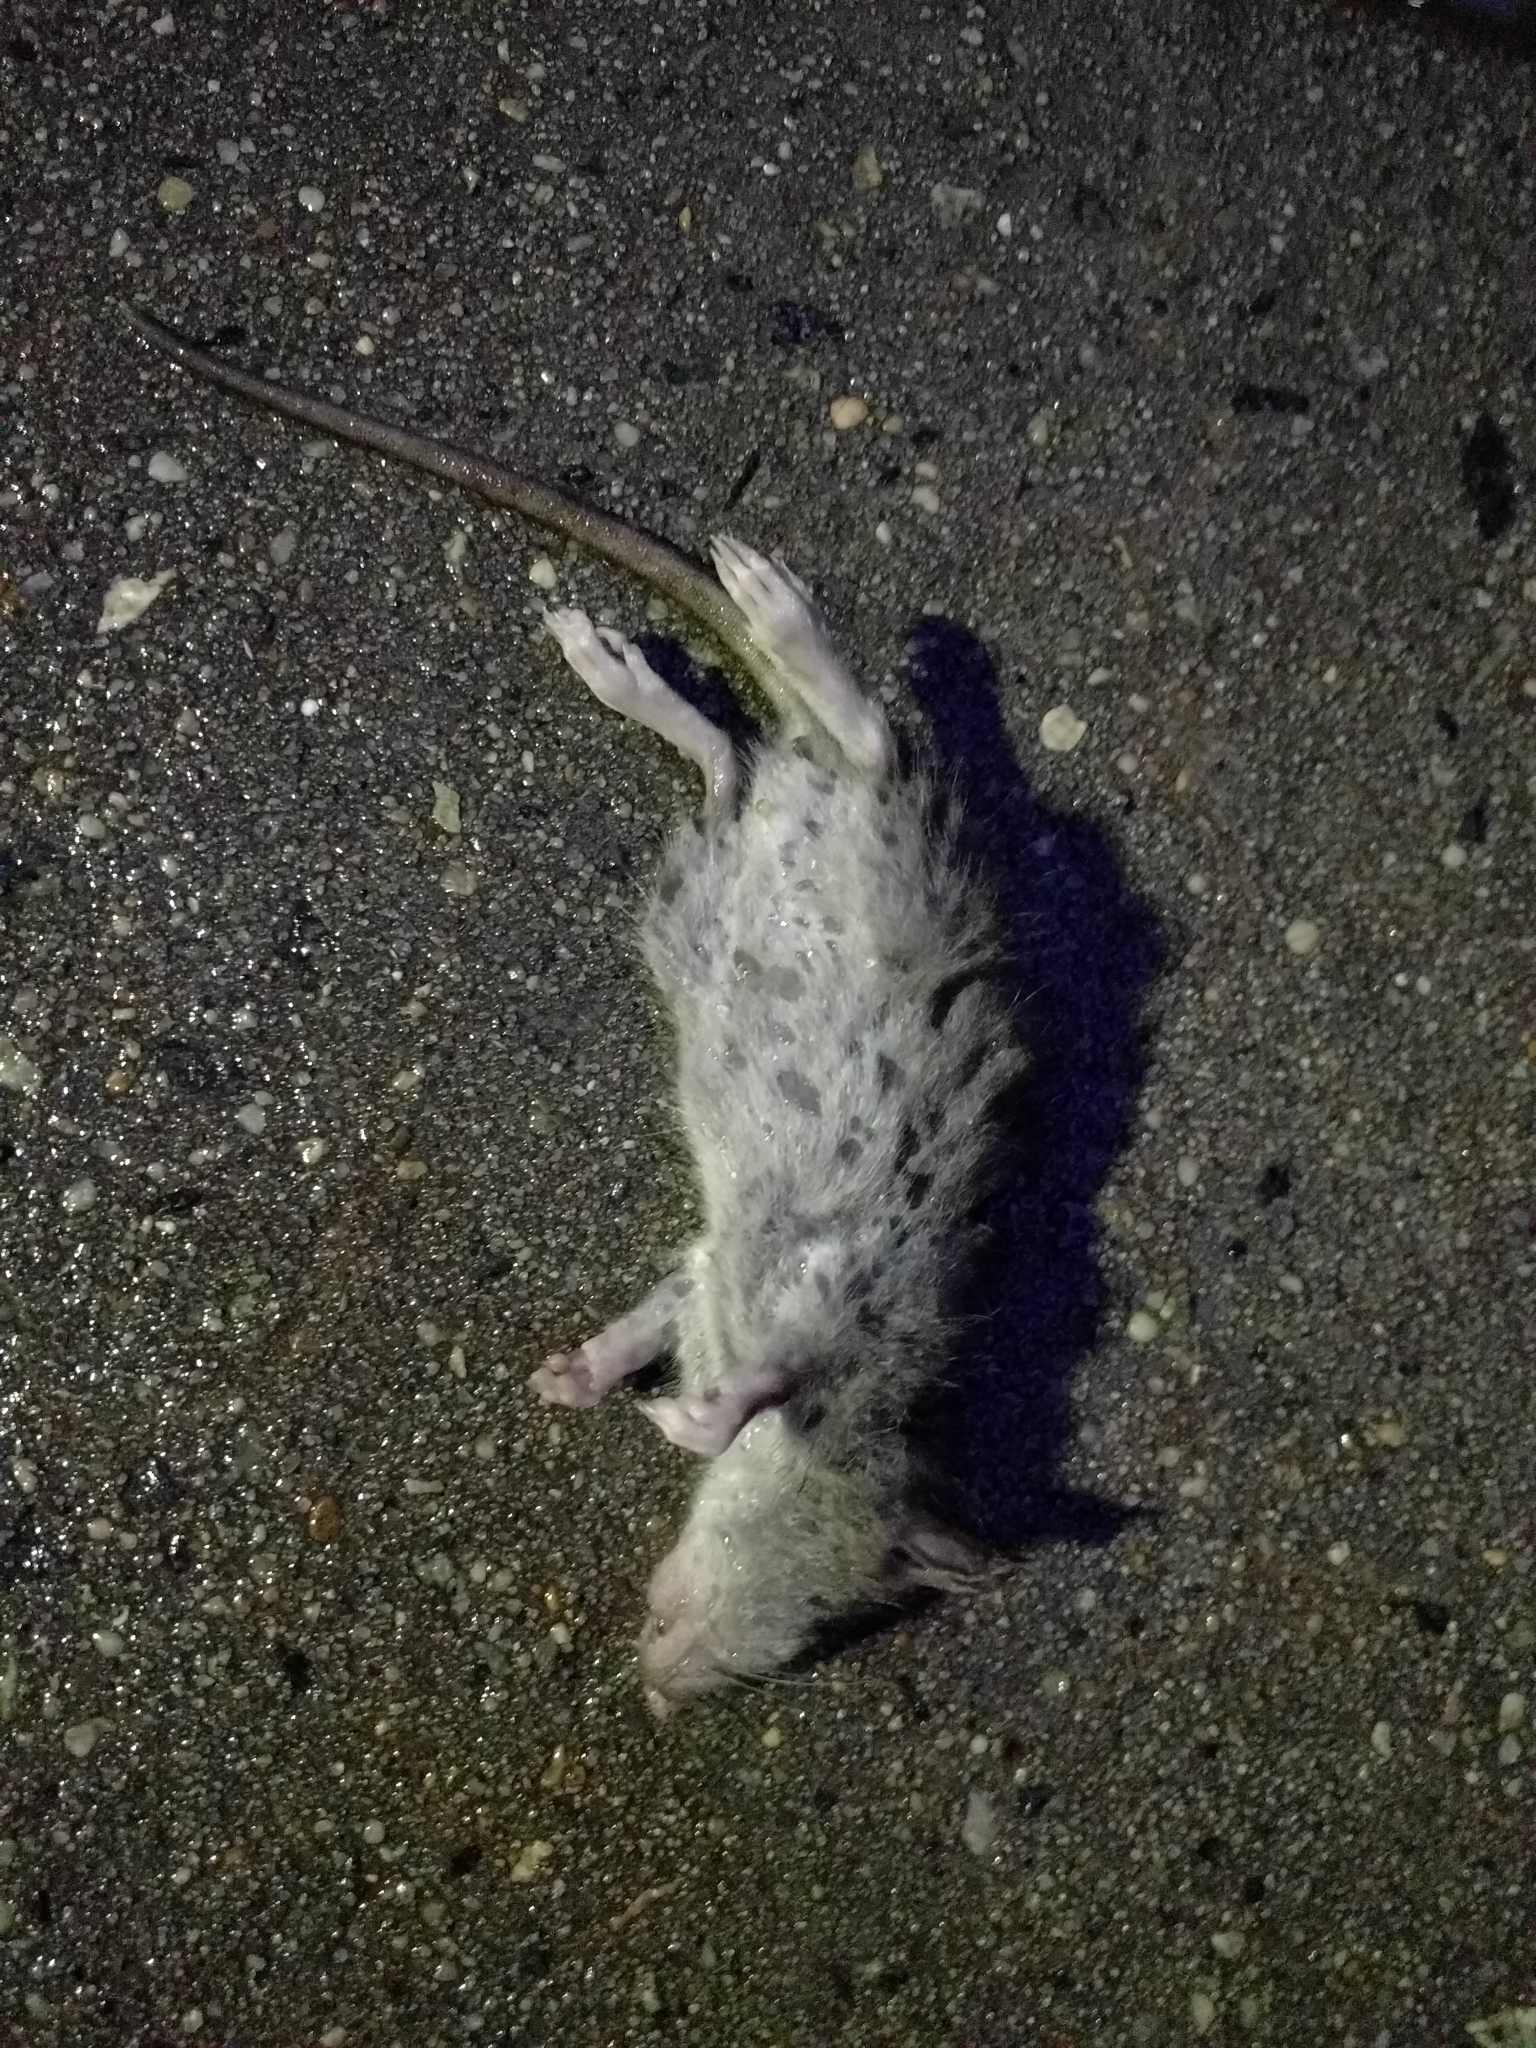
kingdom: Animalia
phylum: Chordata
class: Mammalia
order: Rodentia
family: Muridae
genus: Rattus
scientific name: Rattus norvegicus
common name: Brown rat
